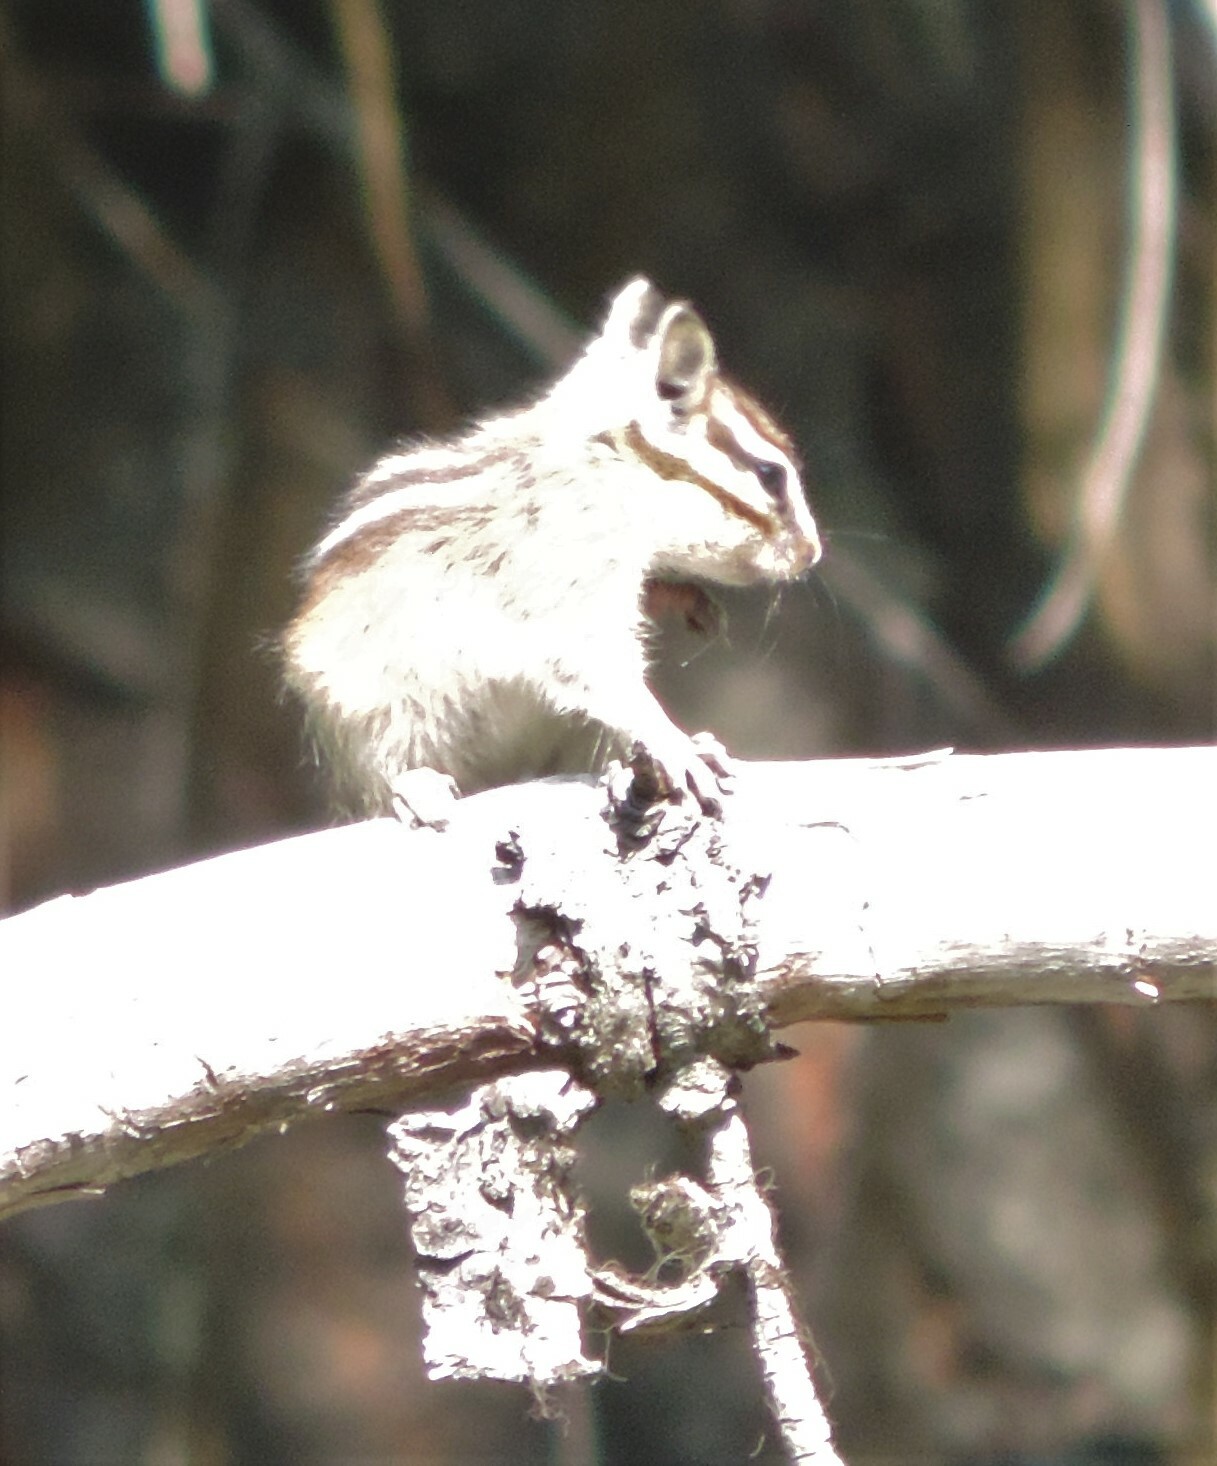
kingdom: Animalia
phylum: Chordata
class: Mammalia
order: Rodentia
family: Sciuridae
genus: Tamias
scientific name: Tamias amoenus
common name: Yellow-pine chipmunk
